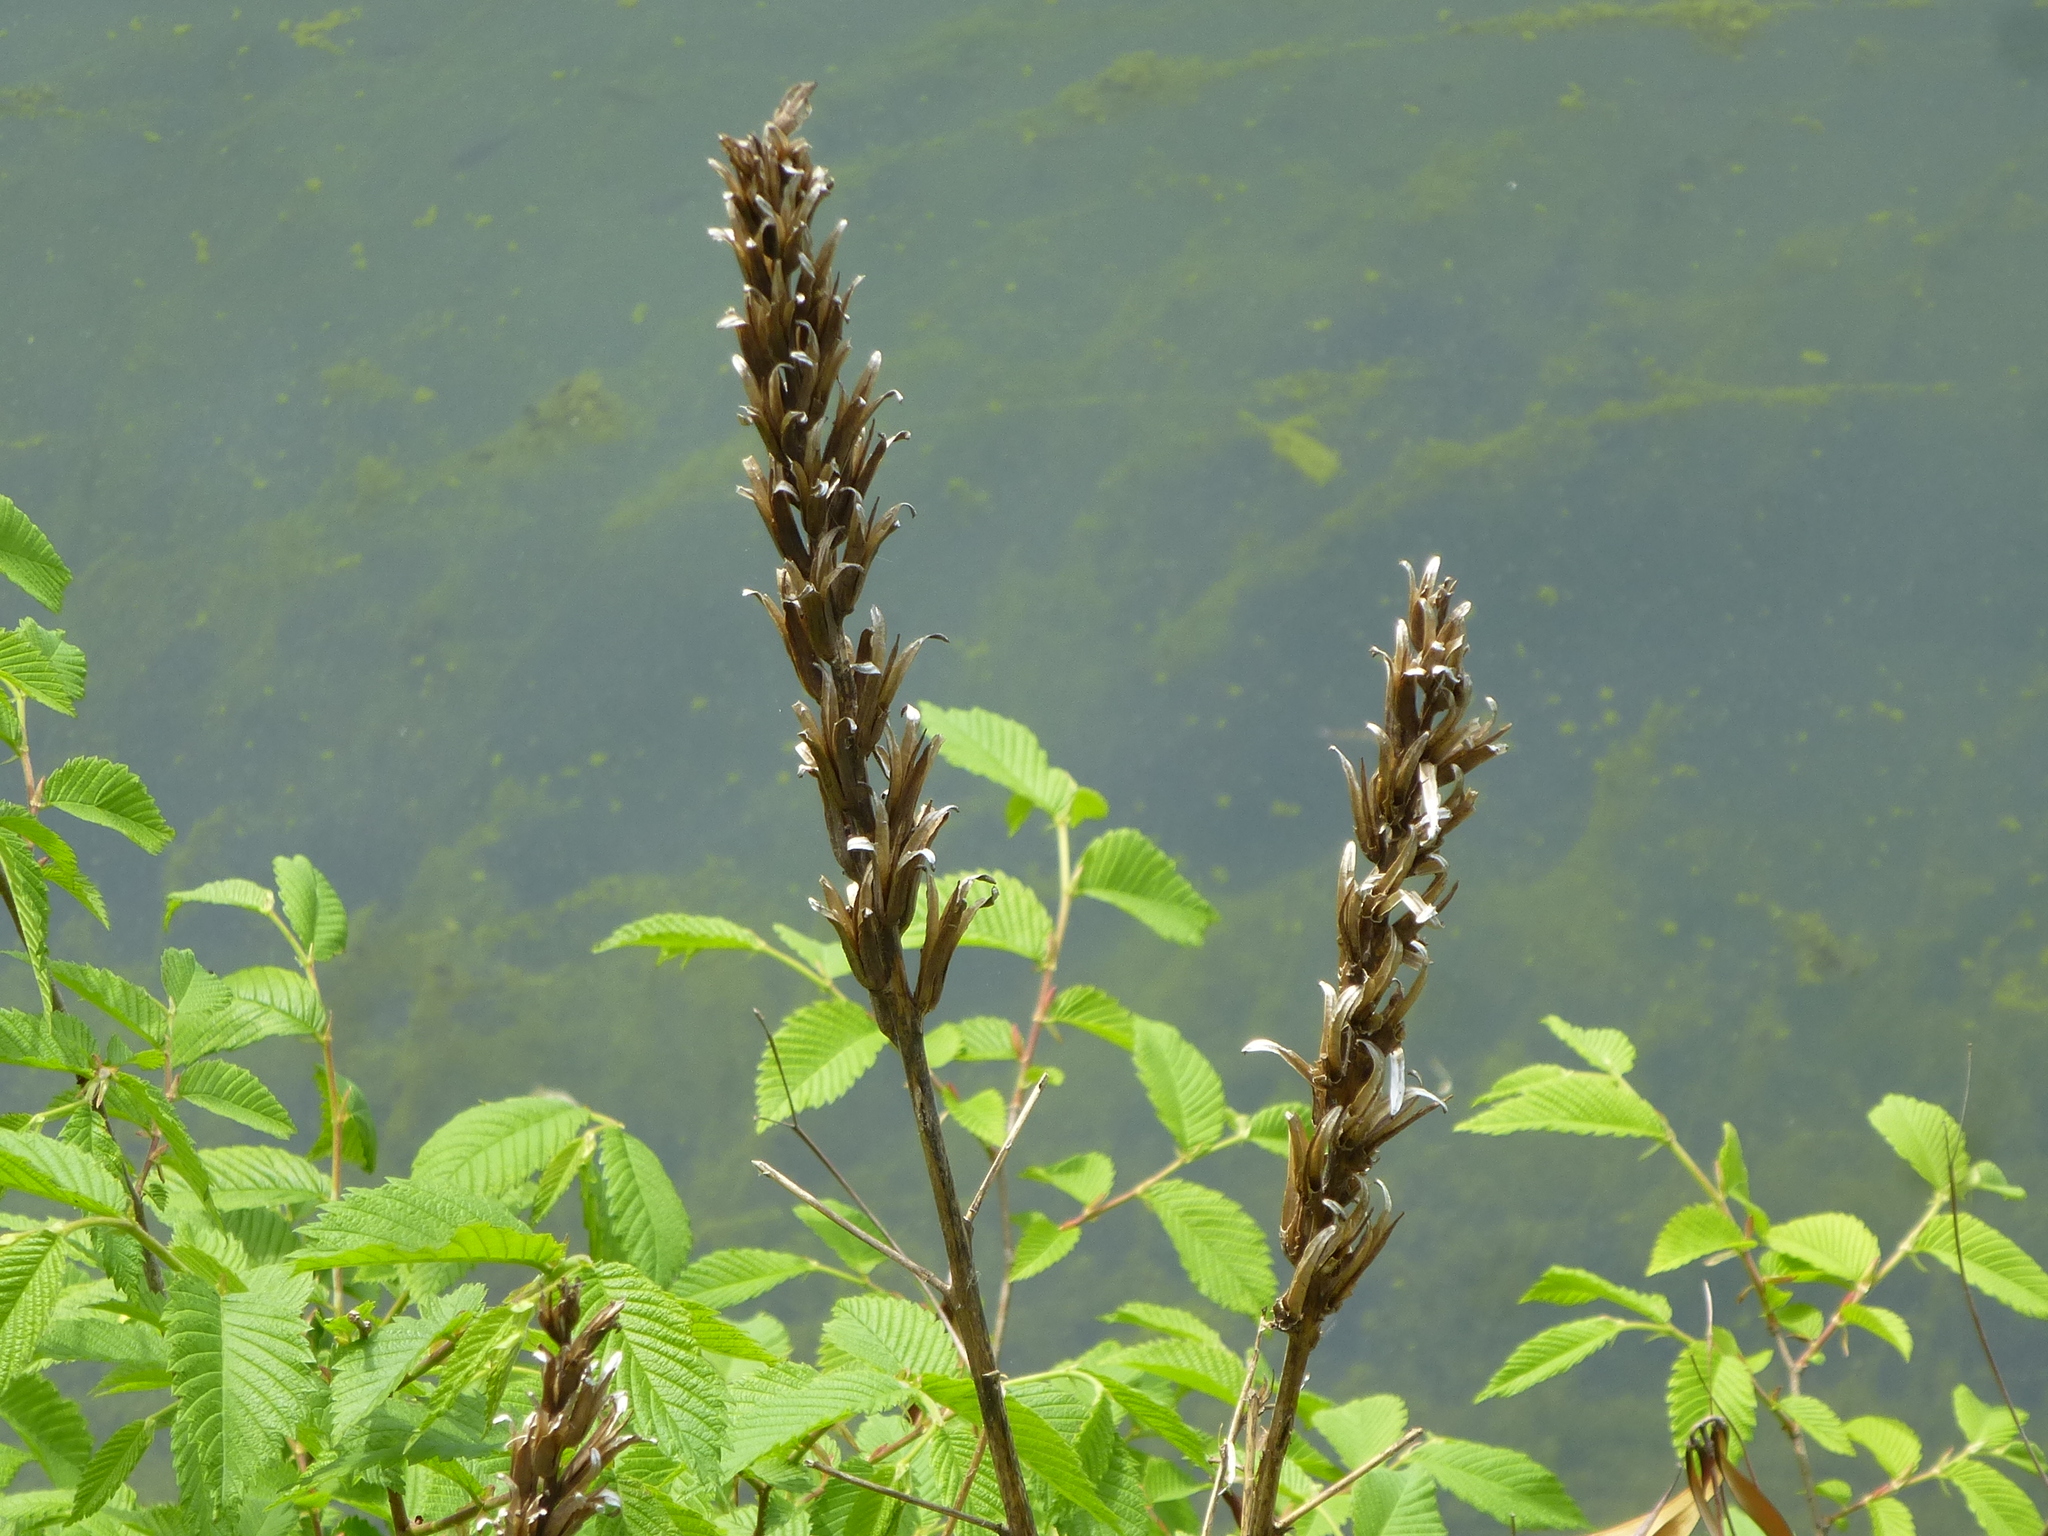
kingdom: Plantae
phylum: Tracheophyta
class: Magnoliopsida
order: Myrtales
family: Onagraceae
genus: Oenothera
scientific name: Oenothera biennis
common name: Common evening-primrose
